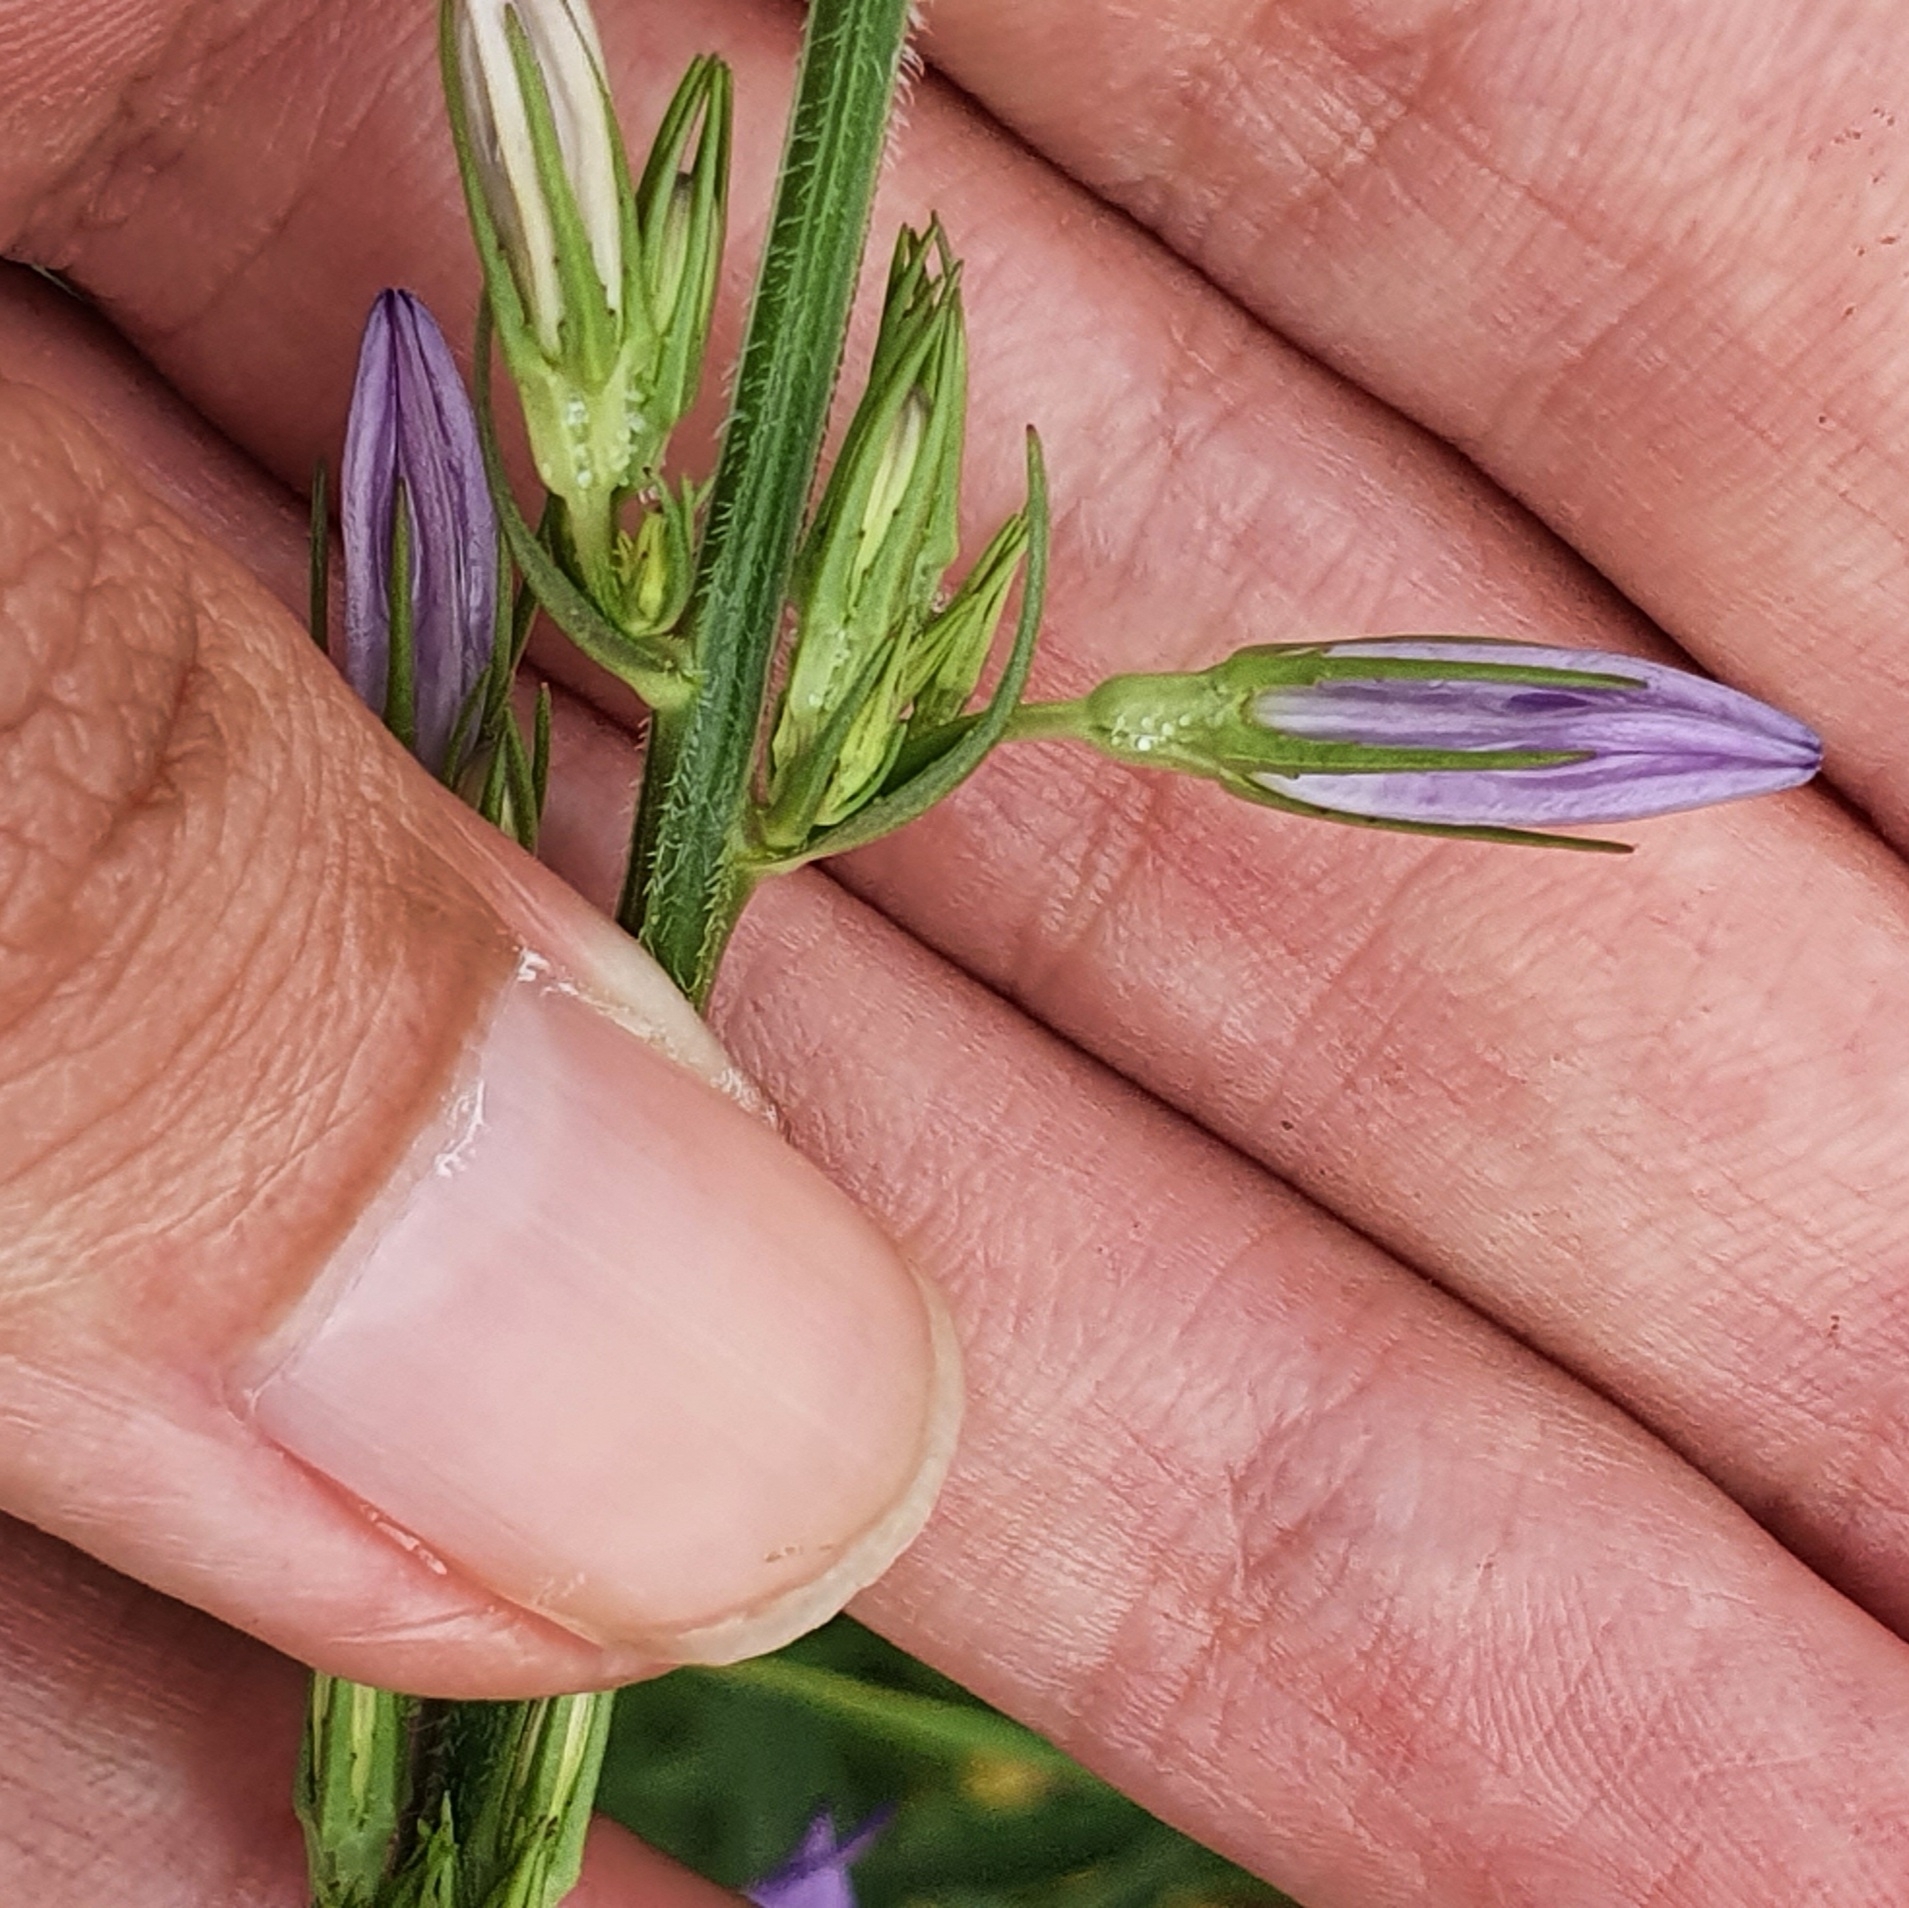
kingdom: Plantae
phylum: Tracheophyta
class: Magnoliopsida
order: Asterales
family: Campanulaceae
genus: Campanula
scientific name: Campanula rapunculus
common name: Rampion bellflower
